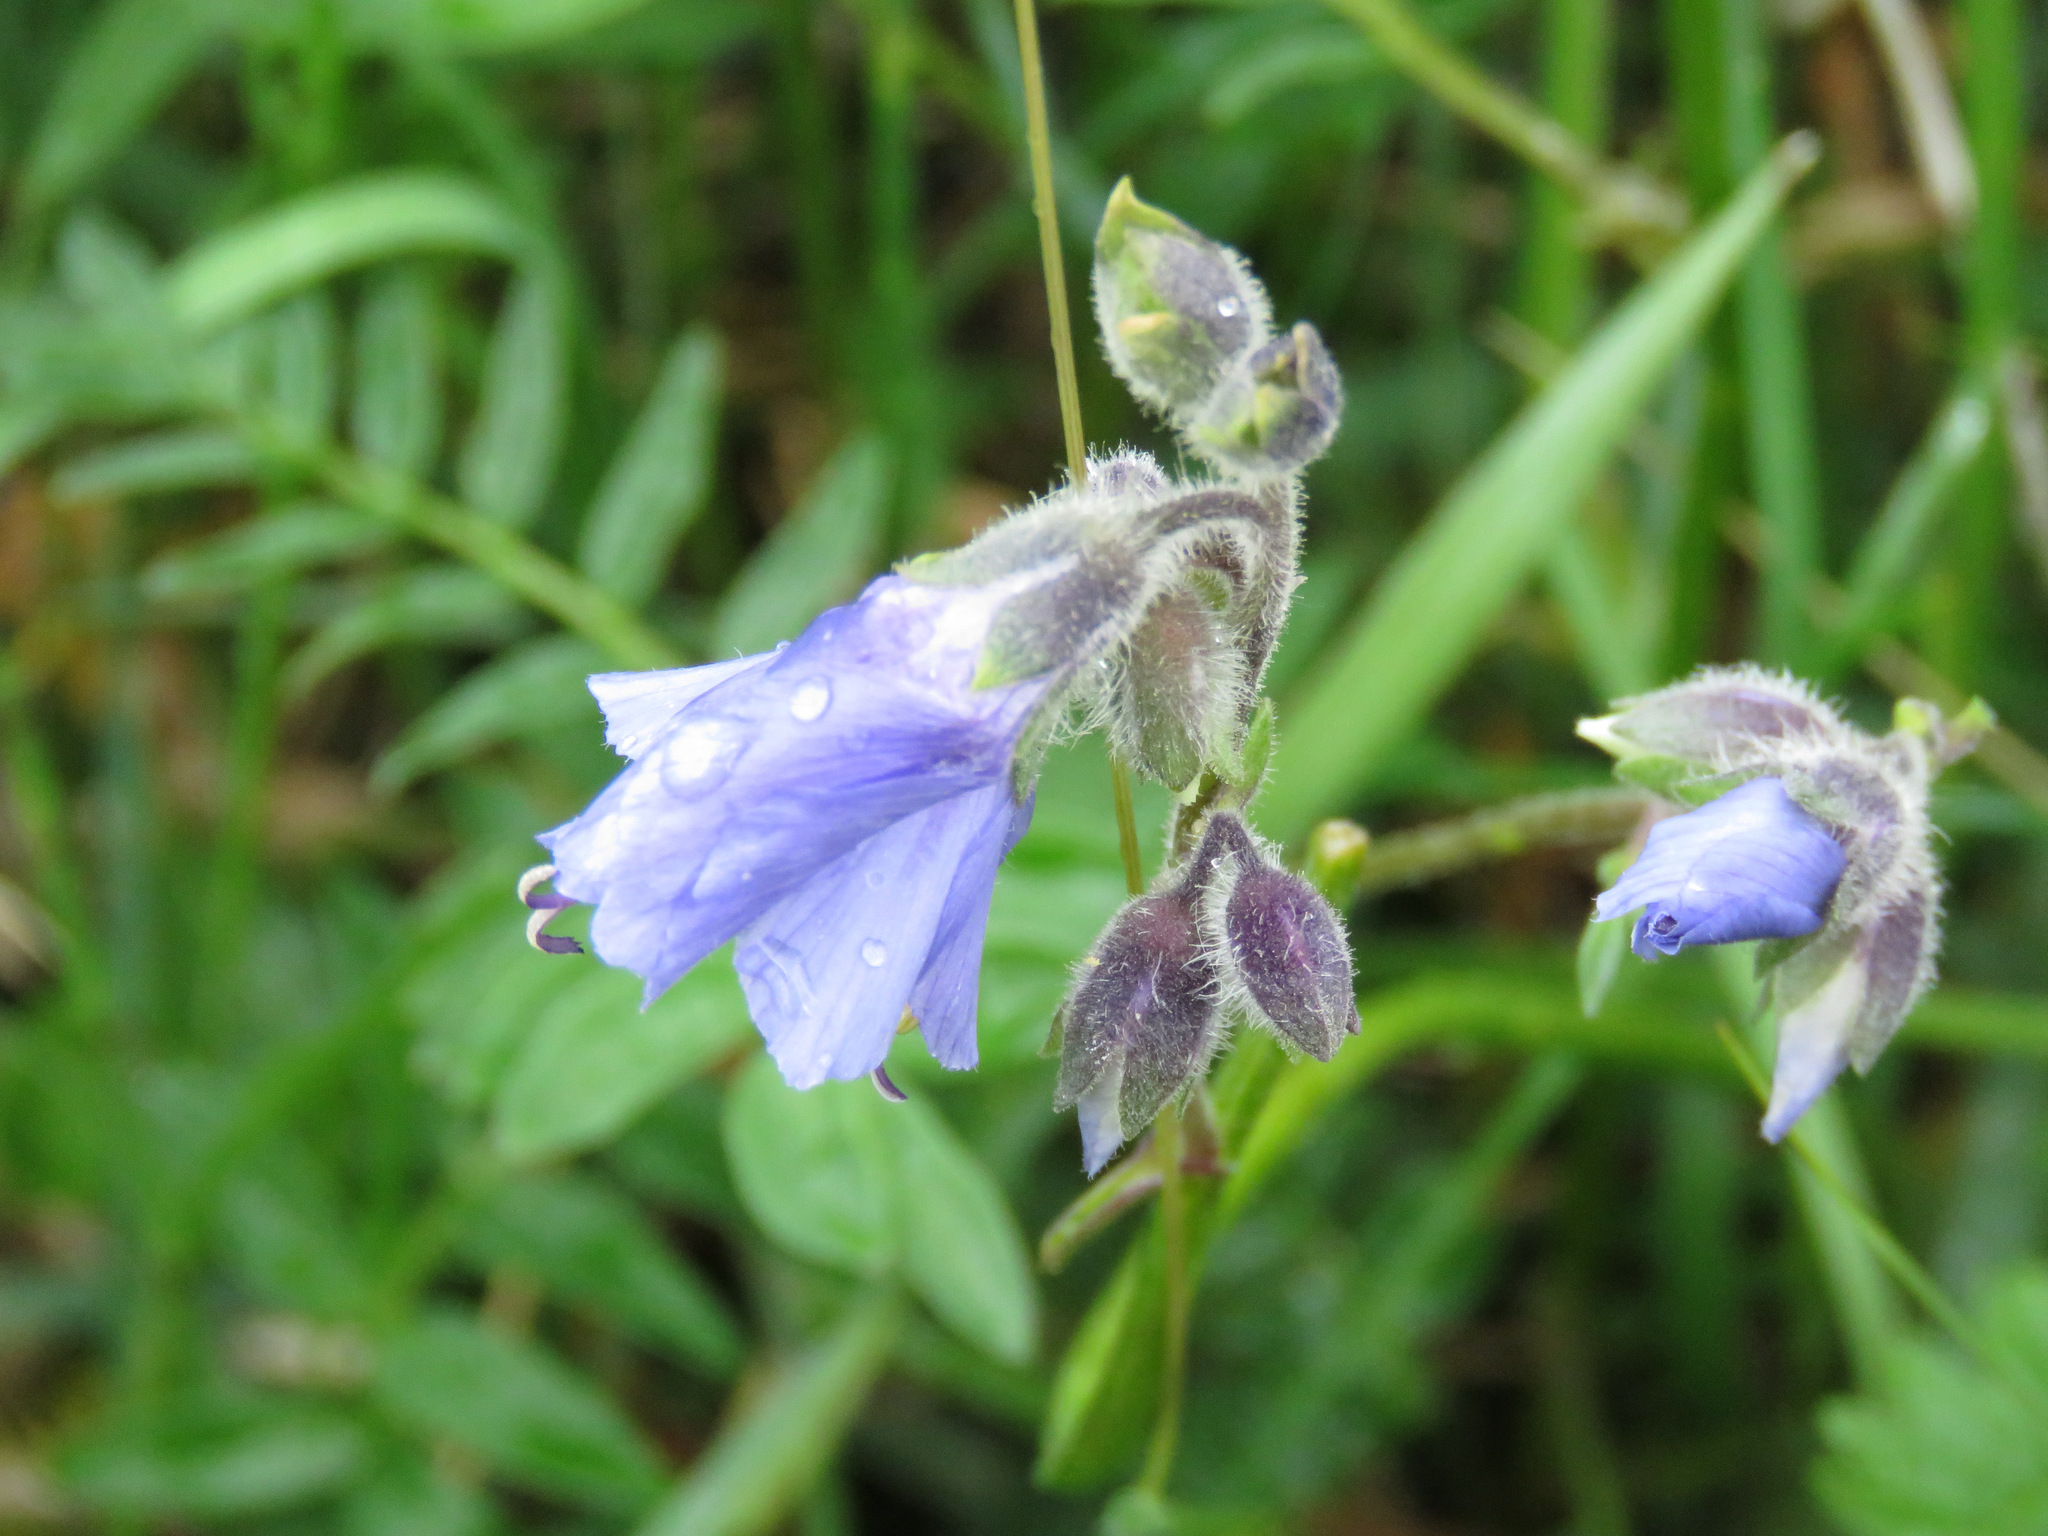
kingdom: Plantae
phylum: Tracheophyta
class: Magnoliopsida
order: Ericales
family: Polemoniaceae
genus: Polemonium
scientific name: Polemonium acutiflorum
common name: Tall jacob's-ladder
